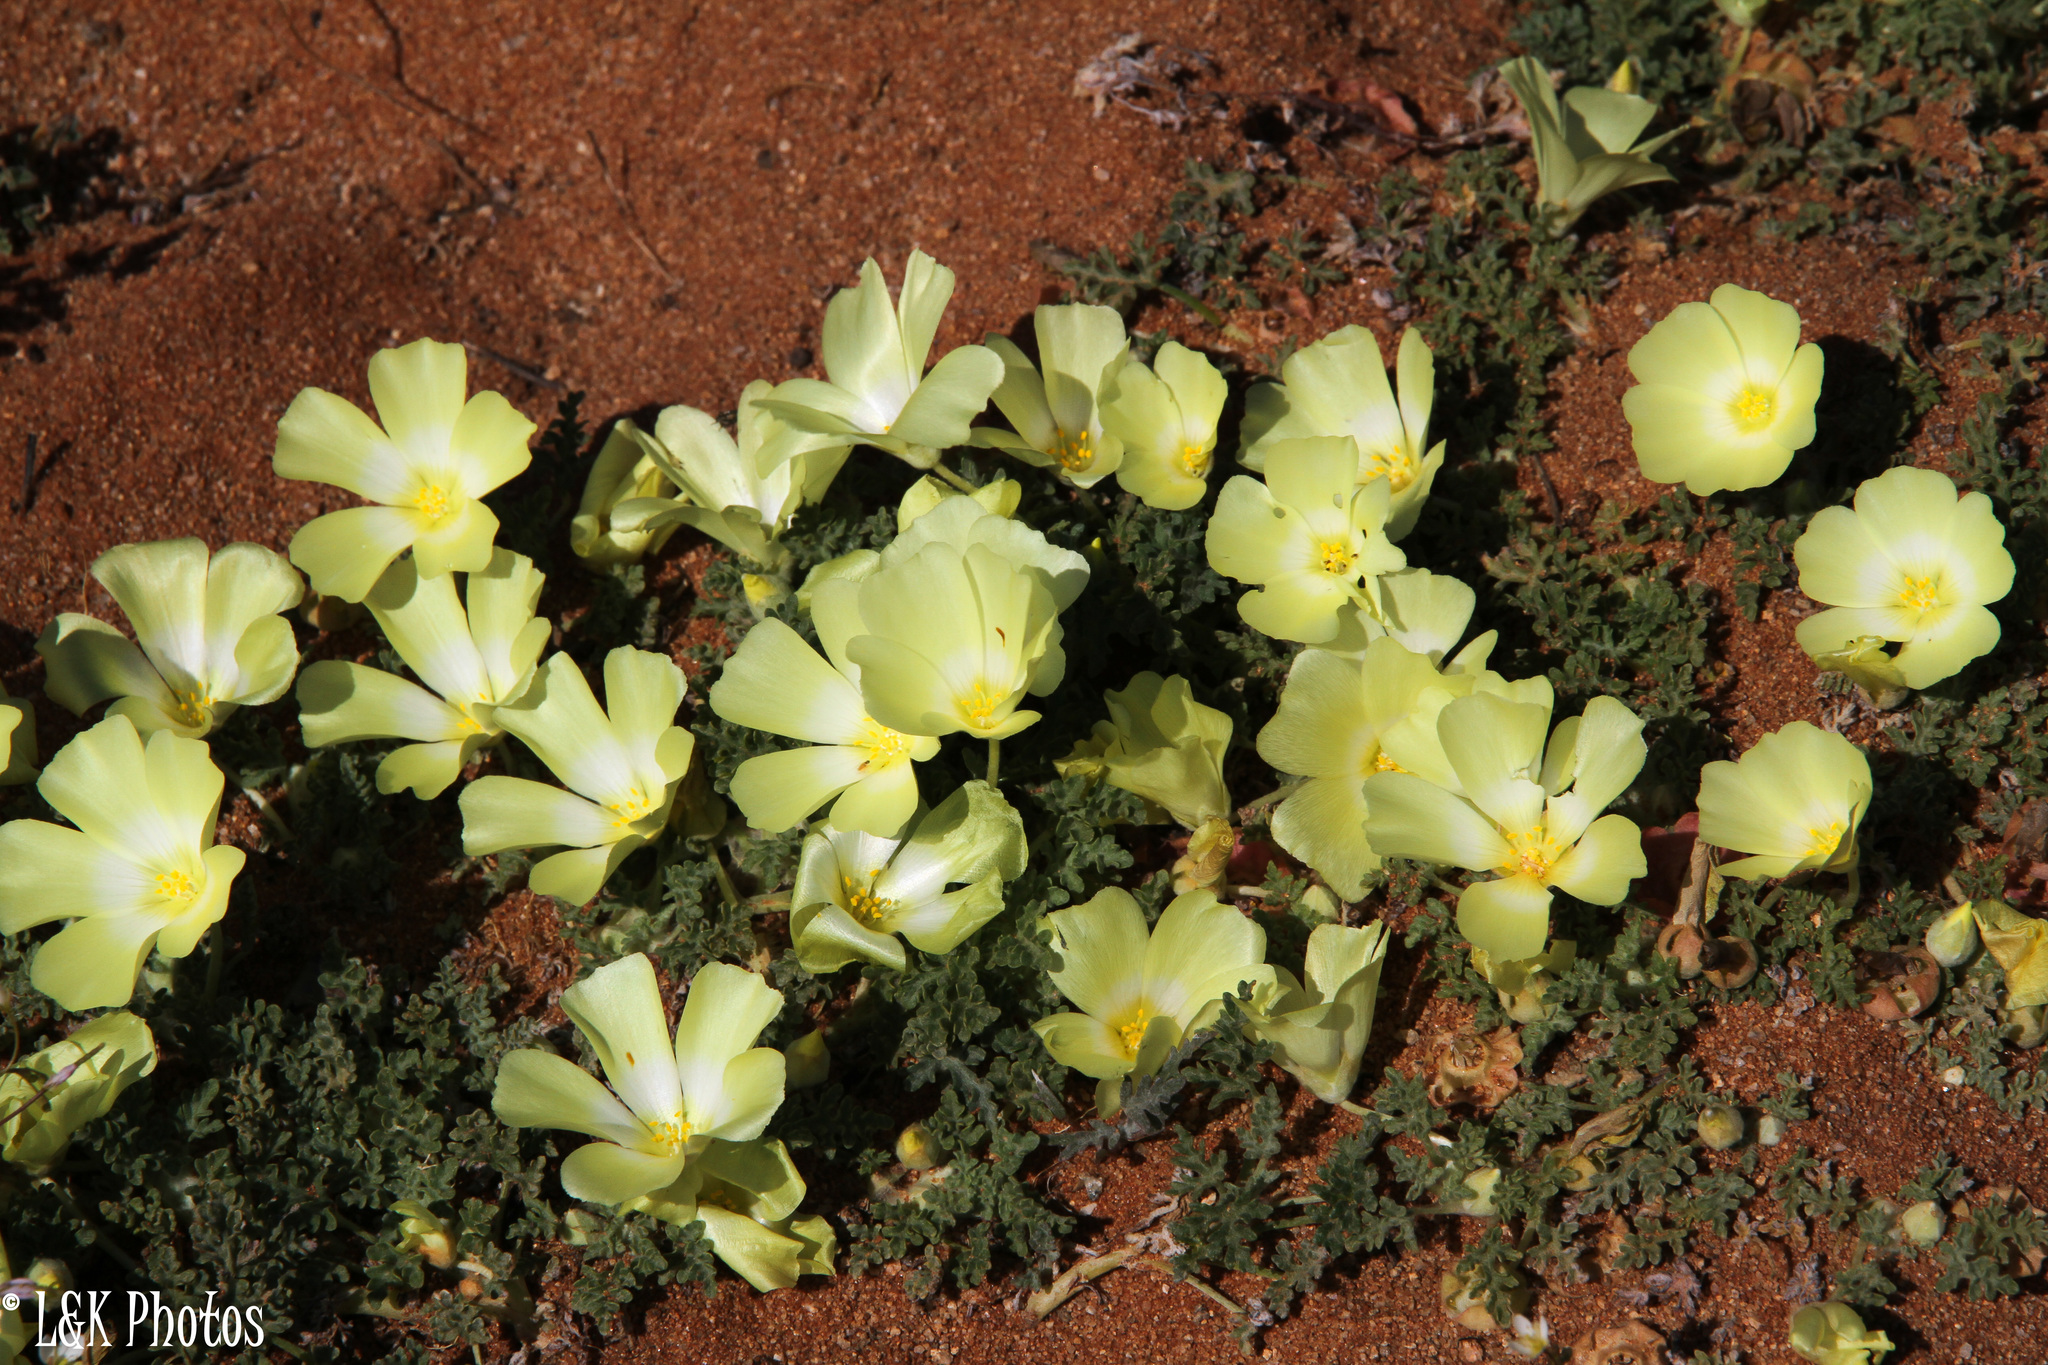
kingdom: Plantae
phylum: Tracheophyta
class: Magnoliopsida
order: Malvales
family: Neuradaceae
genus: Grielum
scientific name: Grielum humifusum
